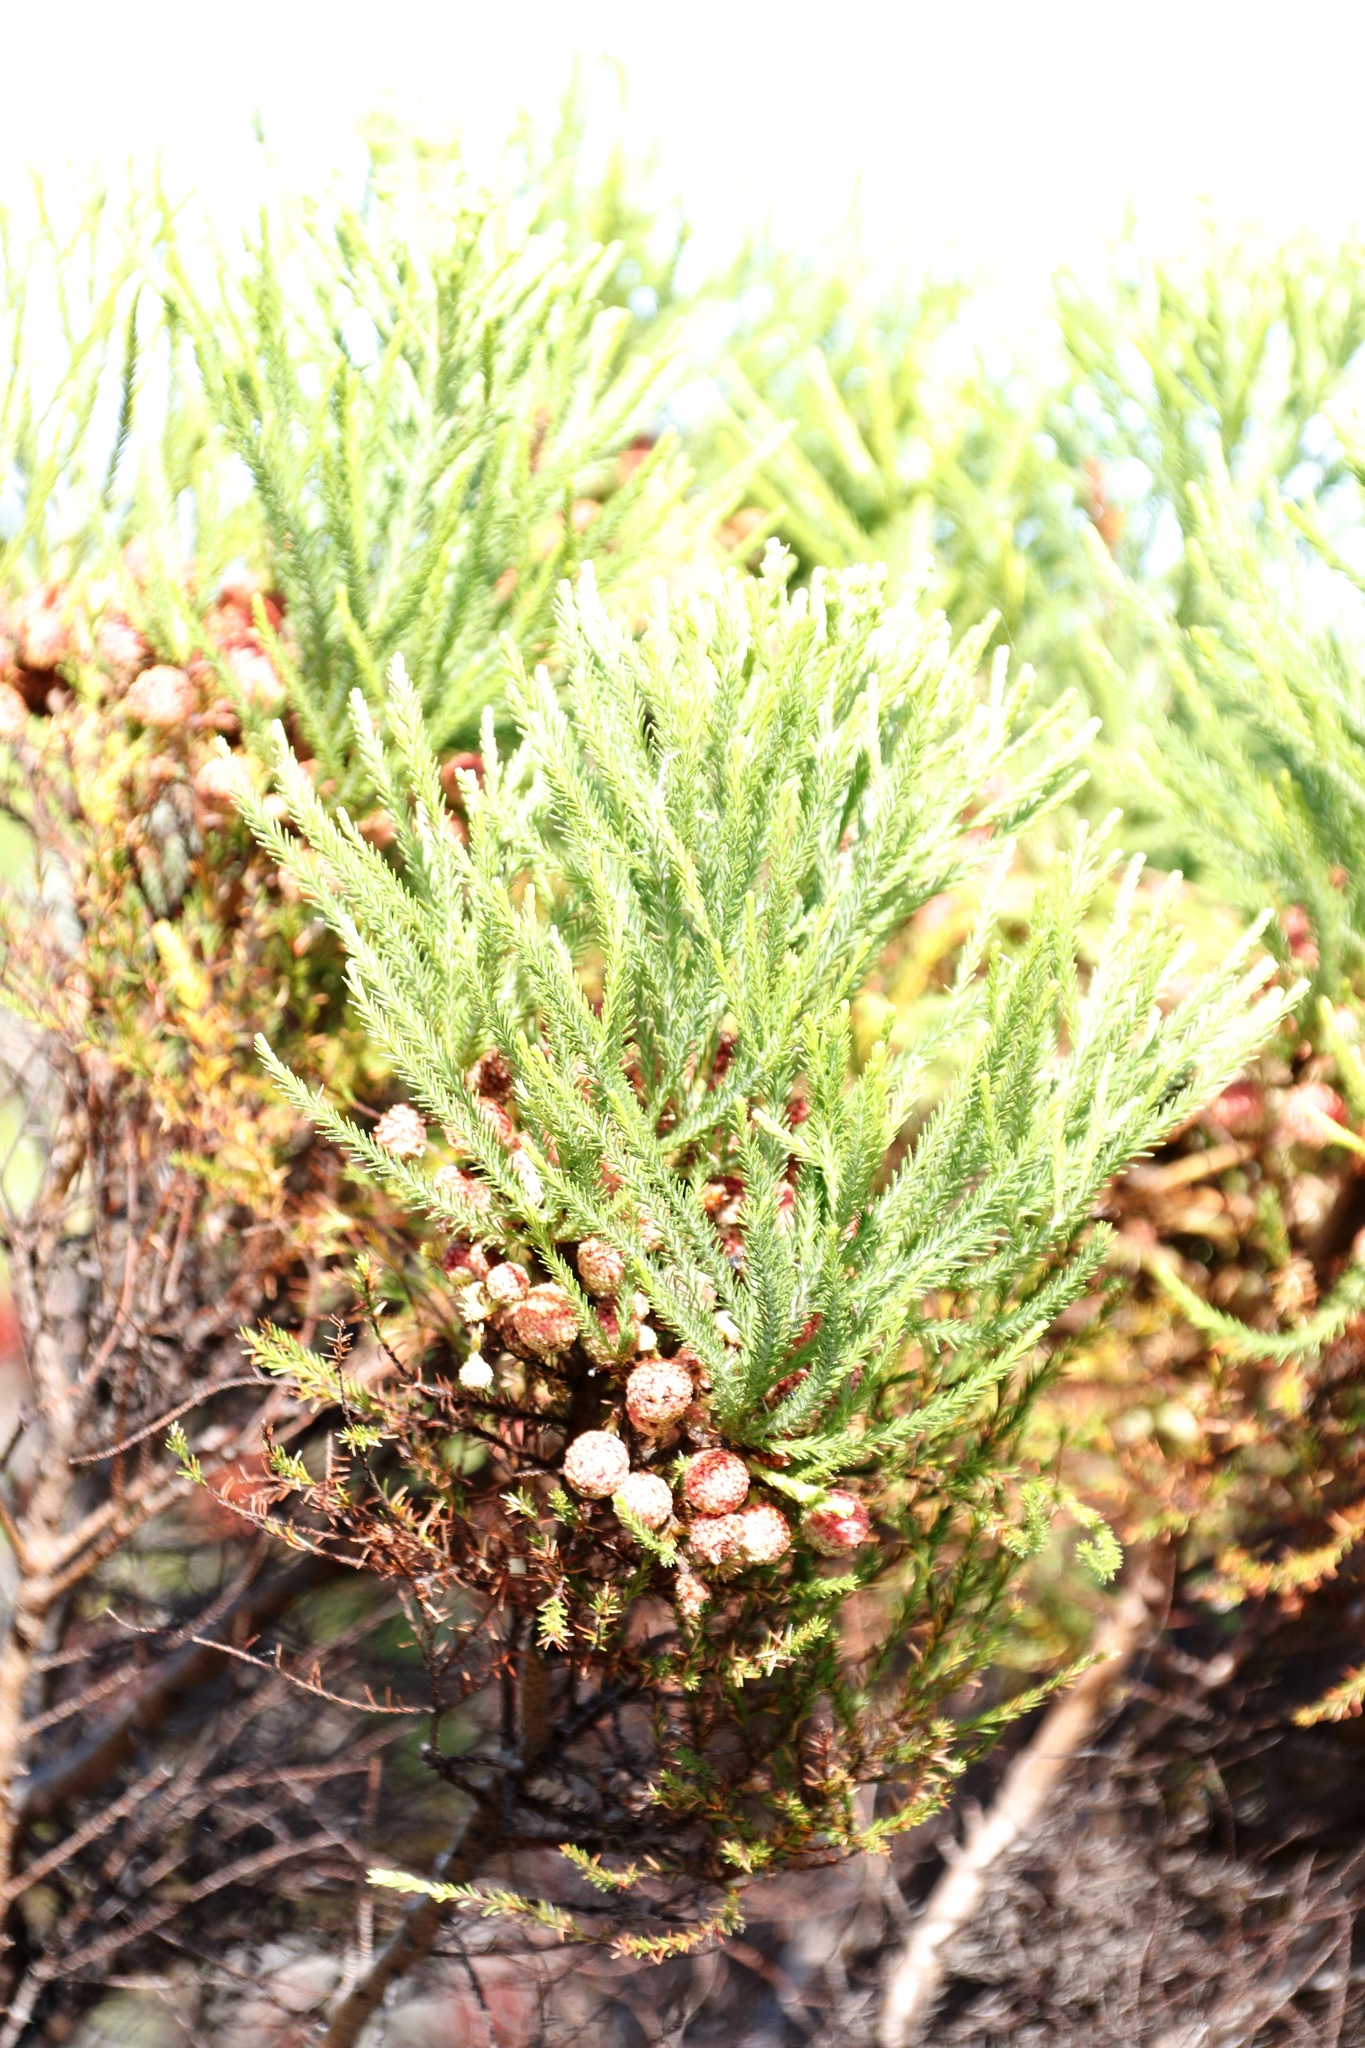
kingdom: Plantae
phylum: Tracheophyta
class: Magnoliopsida
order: Bruniales
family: Bruniaceae
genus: Berzelia
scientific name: Berzelia lanuginosa
